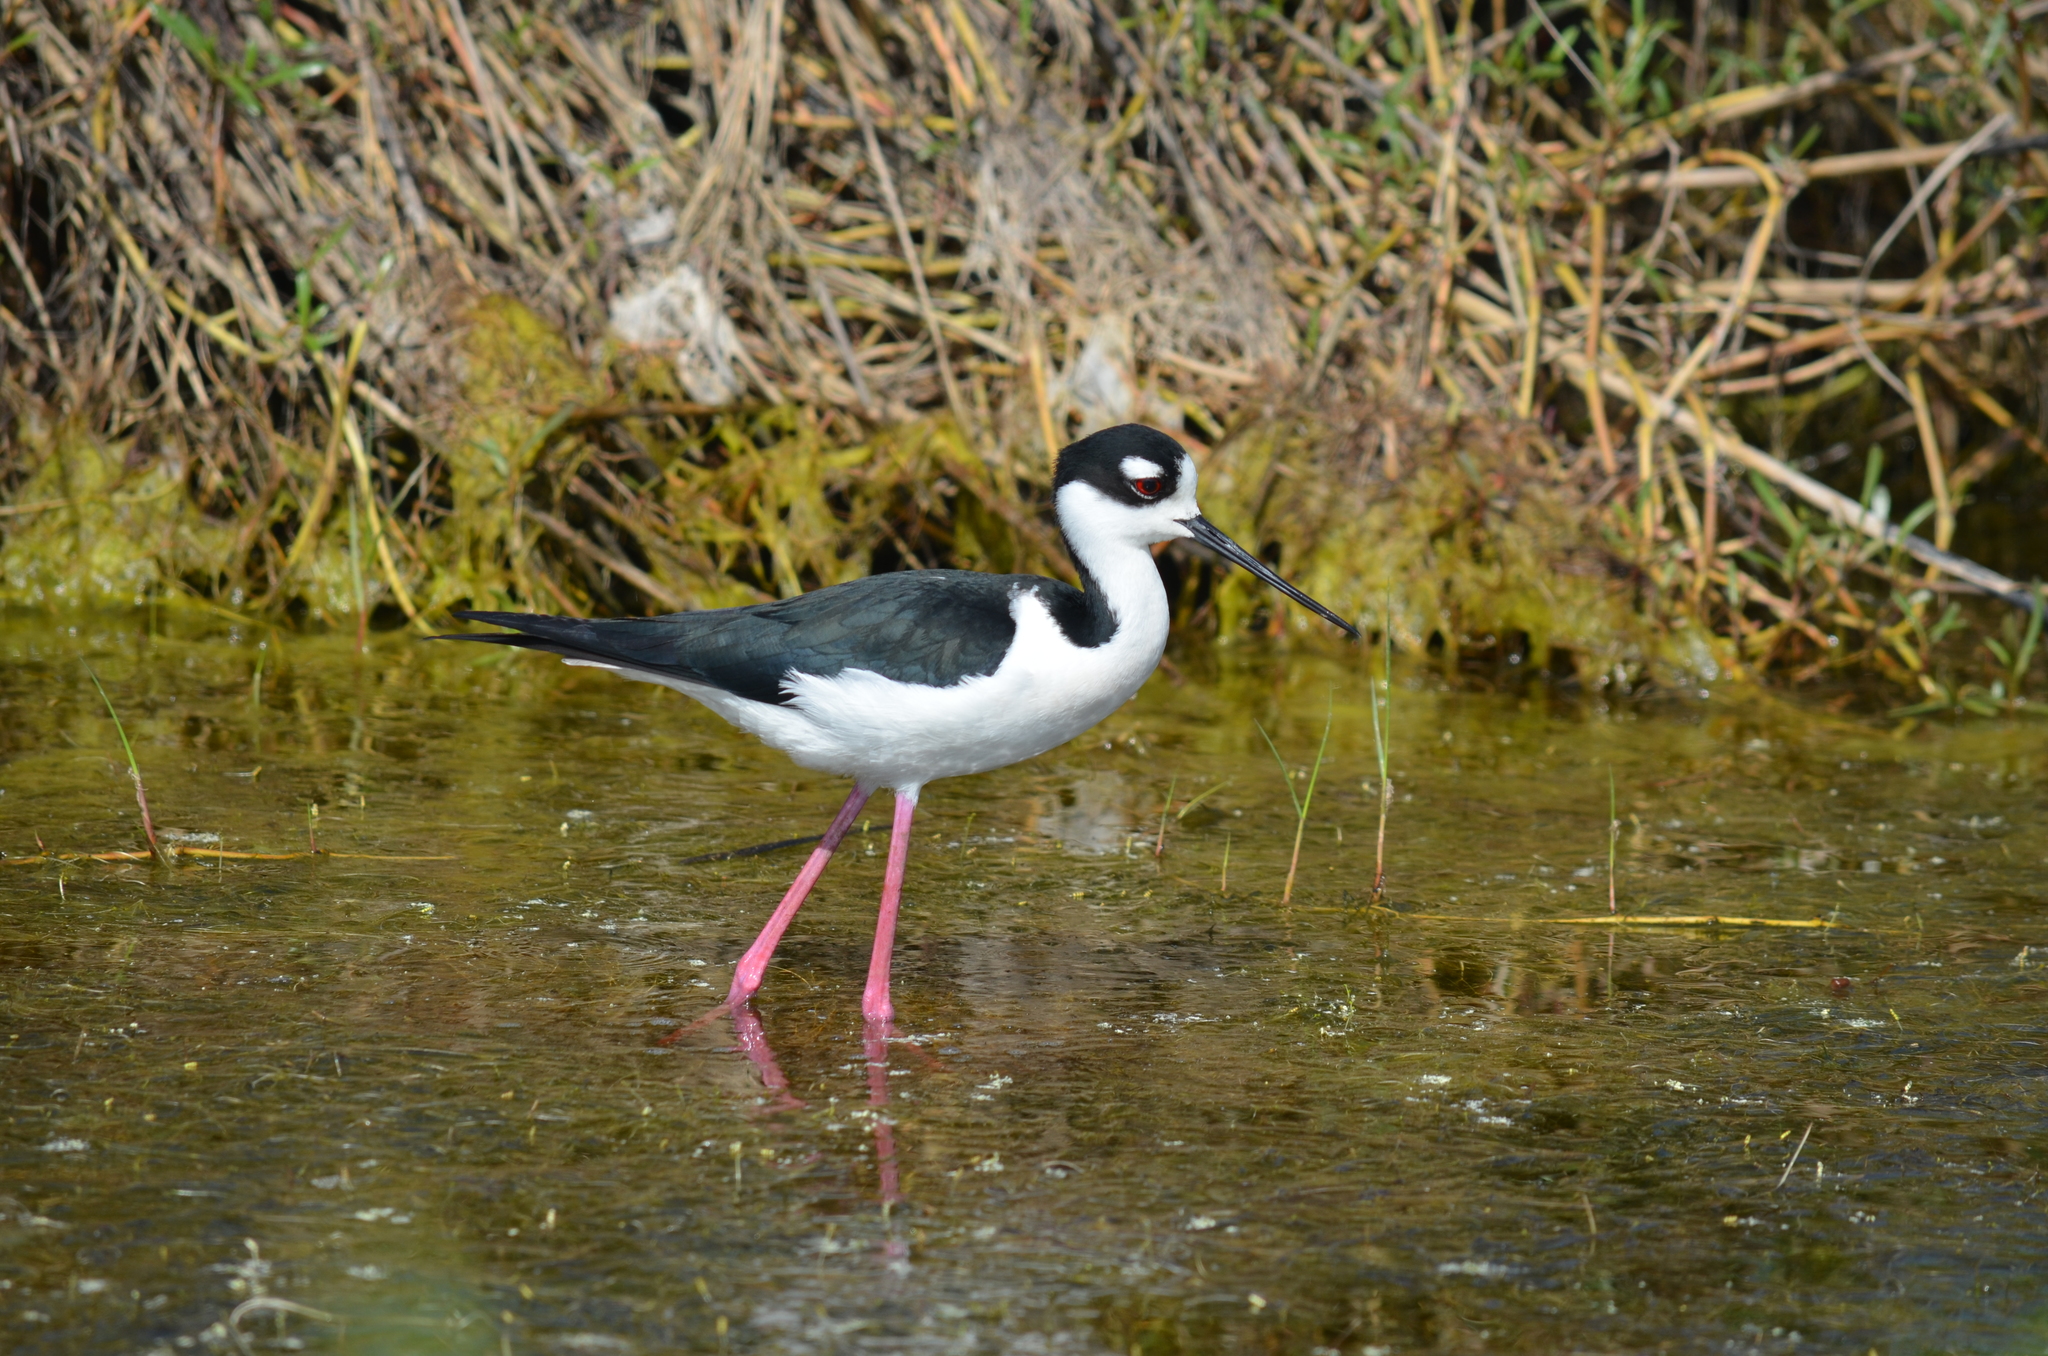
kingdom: Animalia
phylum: Chordata
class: Aves
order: Charadriiformes
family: Recurvirostridae
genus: Himantopus
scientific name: Himantopus mexicanus
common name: Black-necked stilt
